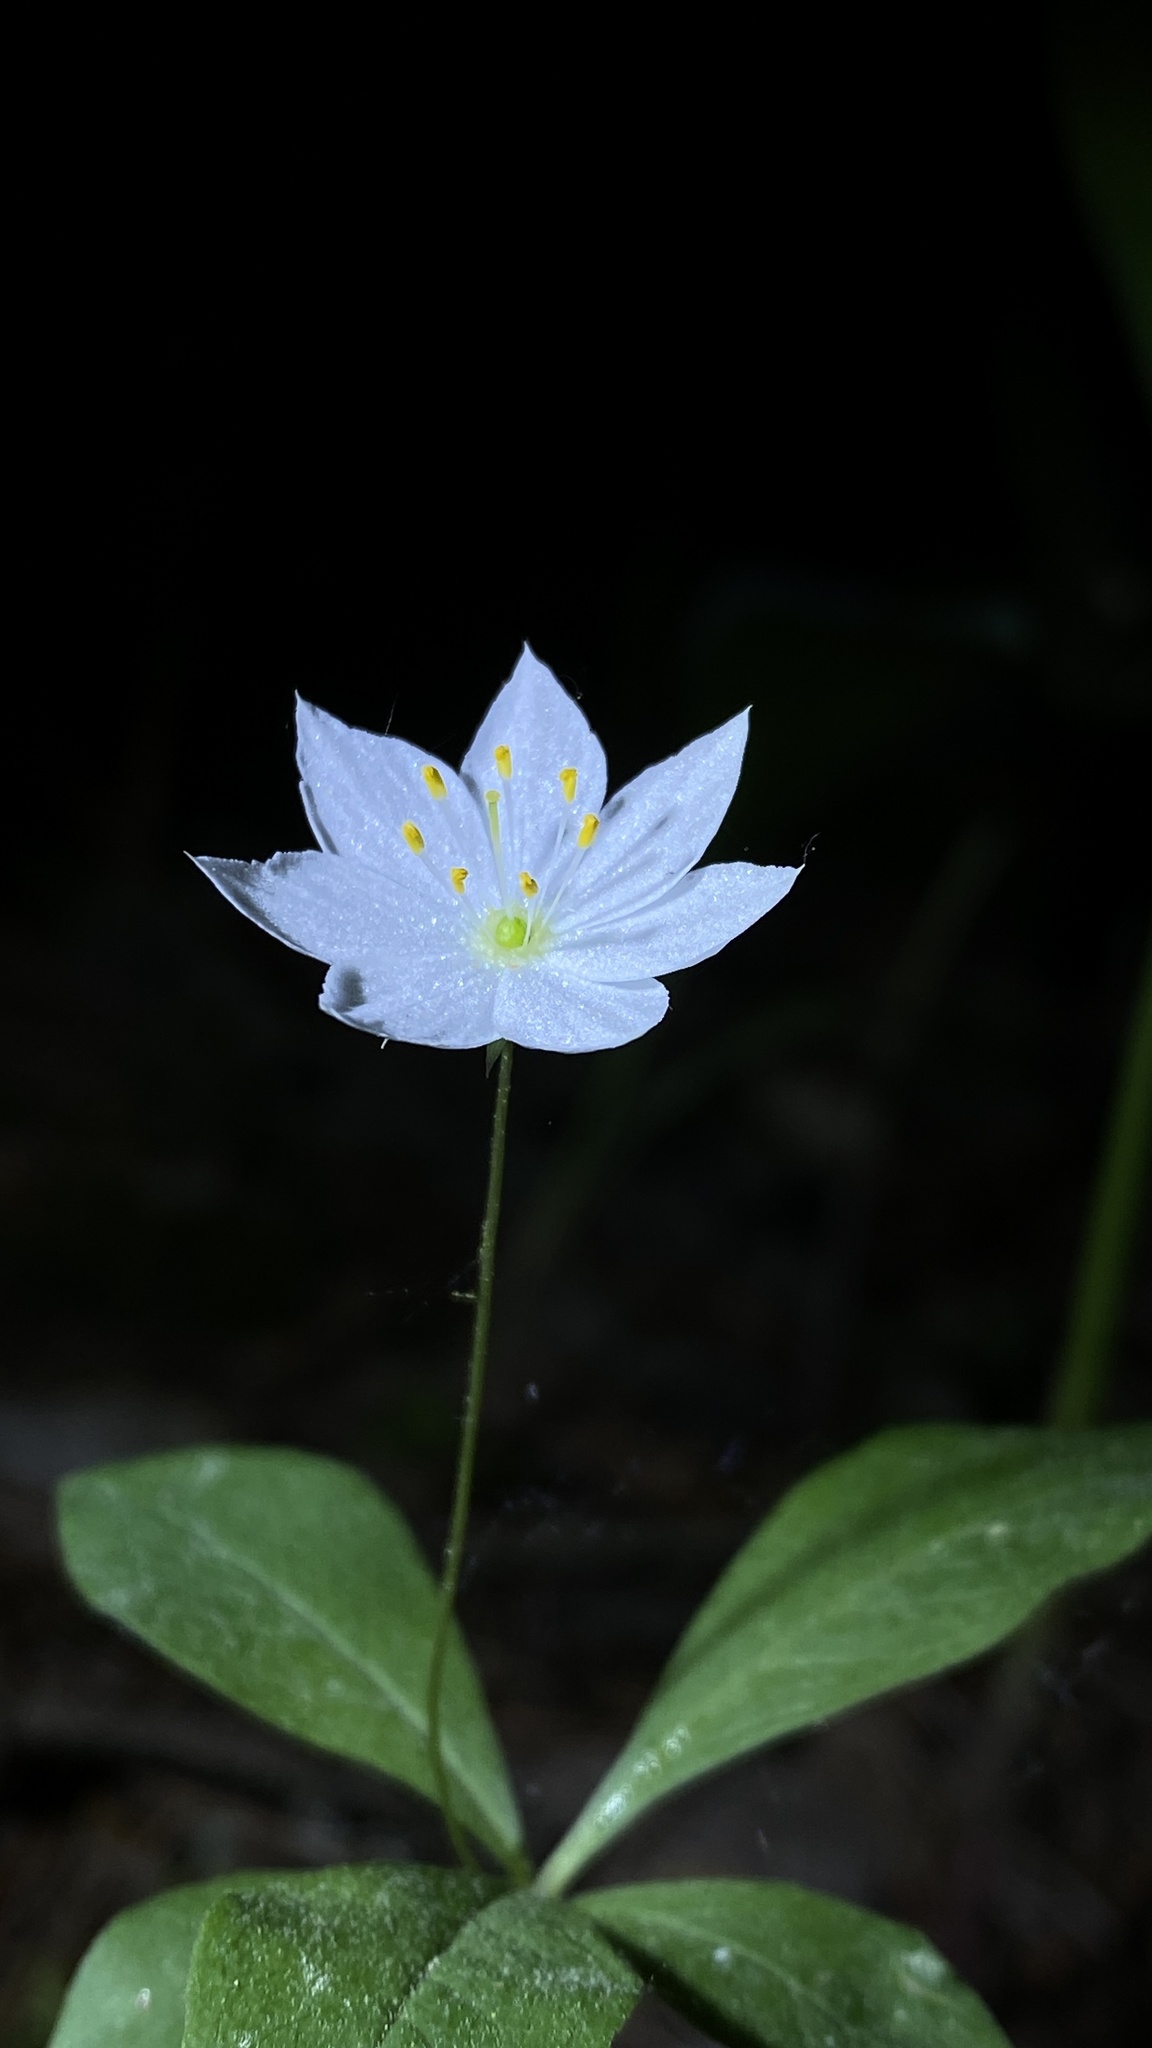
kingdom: Plantae
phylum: Tracheophyta
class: Magnoliopsida
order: Ericales
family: Primulaceae
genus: Lysimachia
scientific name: Lysimachia europaea
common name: Arctic starflower
